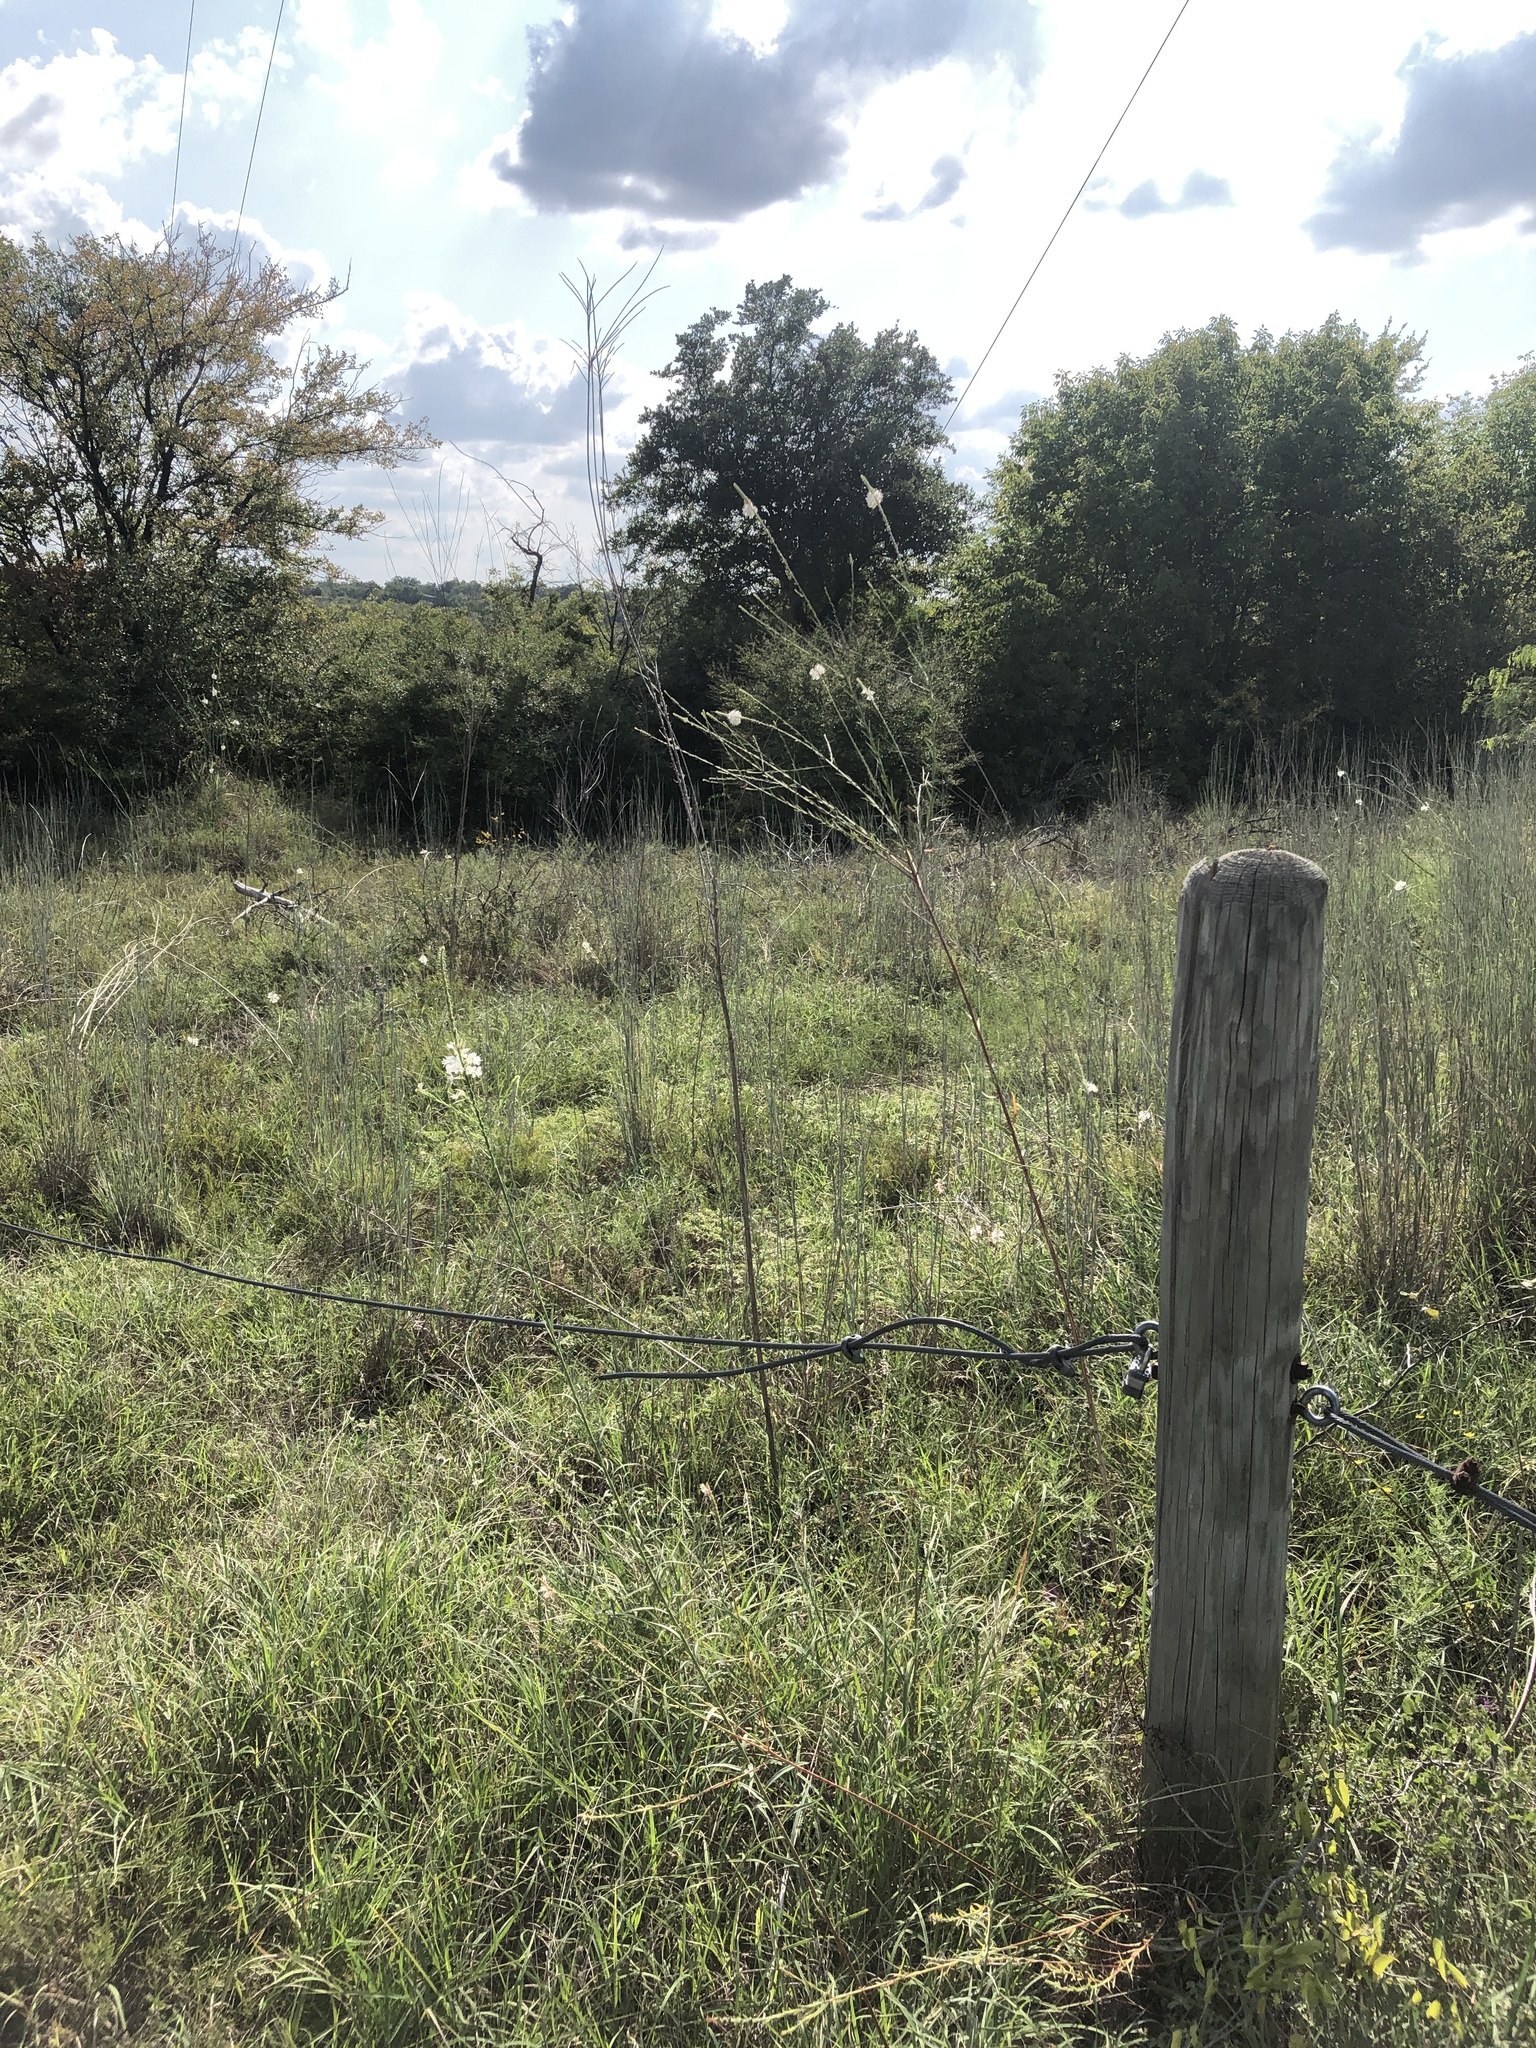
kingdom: Plantae
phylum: Tracheophyta
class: Magnoliopsida
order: Myrtales
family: Onagraceae
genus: Oenothera
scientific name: Oenothera glaucifolia
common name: False gaura
